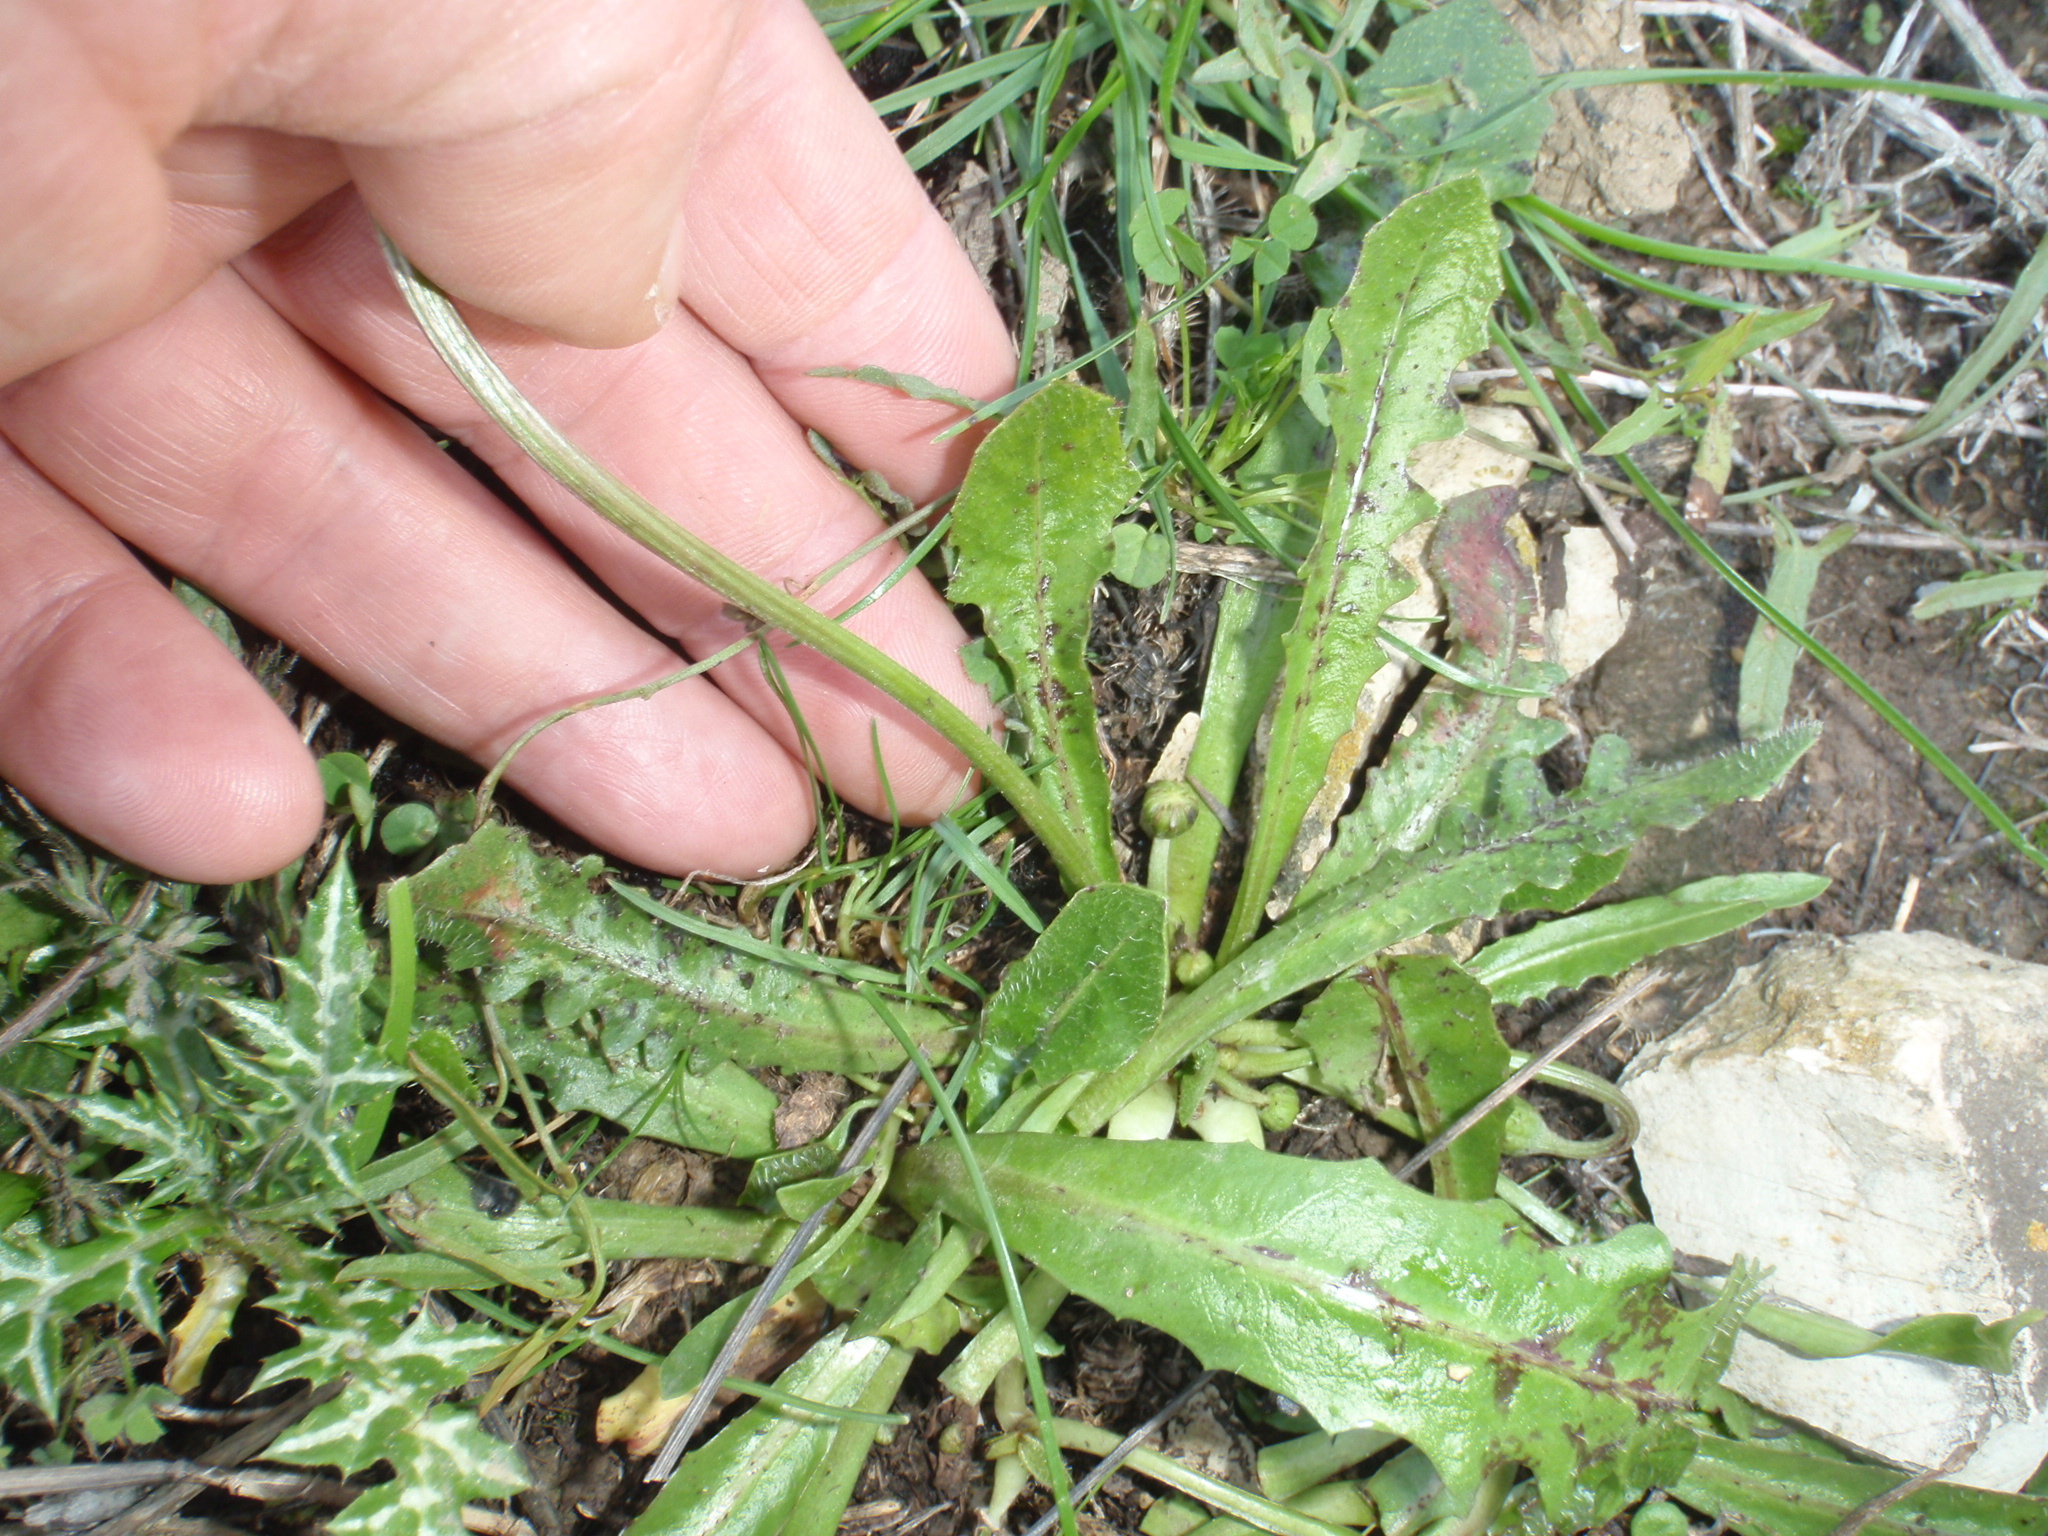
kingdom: Plantae
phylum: Tracheophyta
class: Magnoliopsida
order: Asterales
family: Asteraceae
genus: Hypochaeris
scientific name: Hypochaeris radicata
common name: Flatweed
